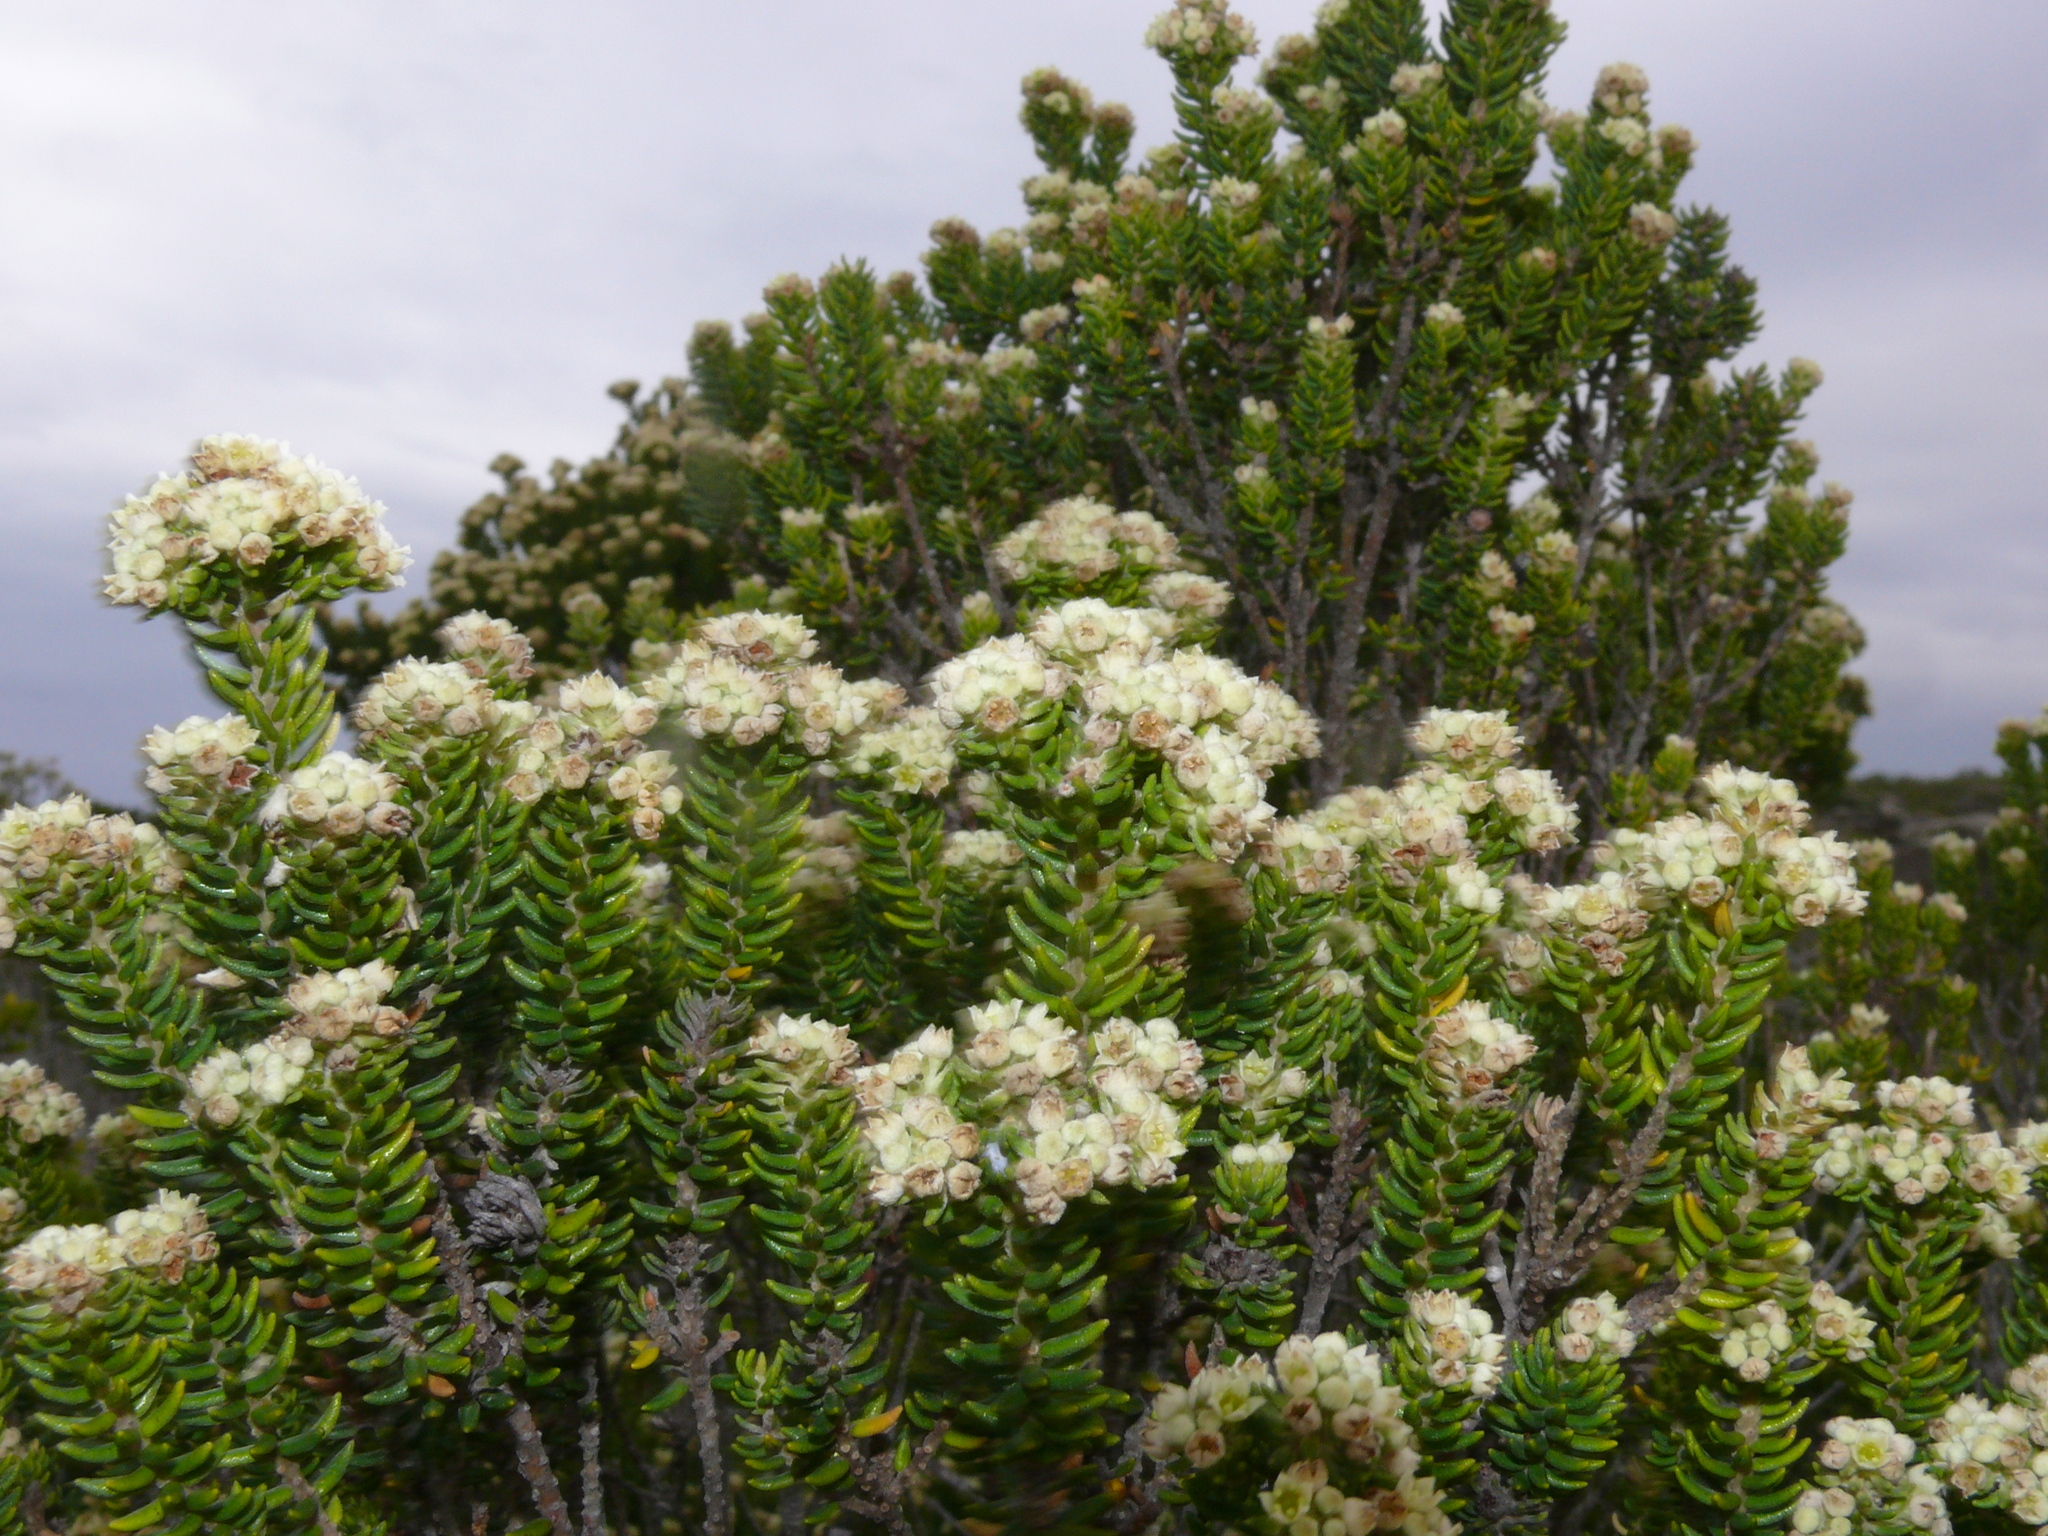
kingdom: Plantae
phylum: Tracheophyta
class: Magnoliopsida
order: Rosales
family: Rhamnaceae
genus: Phylica
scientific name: Phylica ericoides
